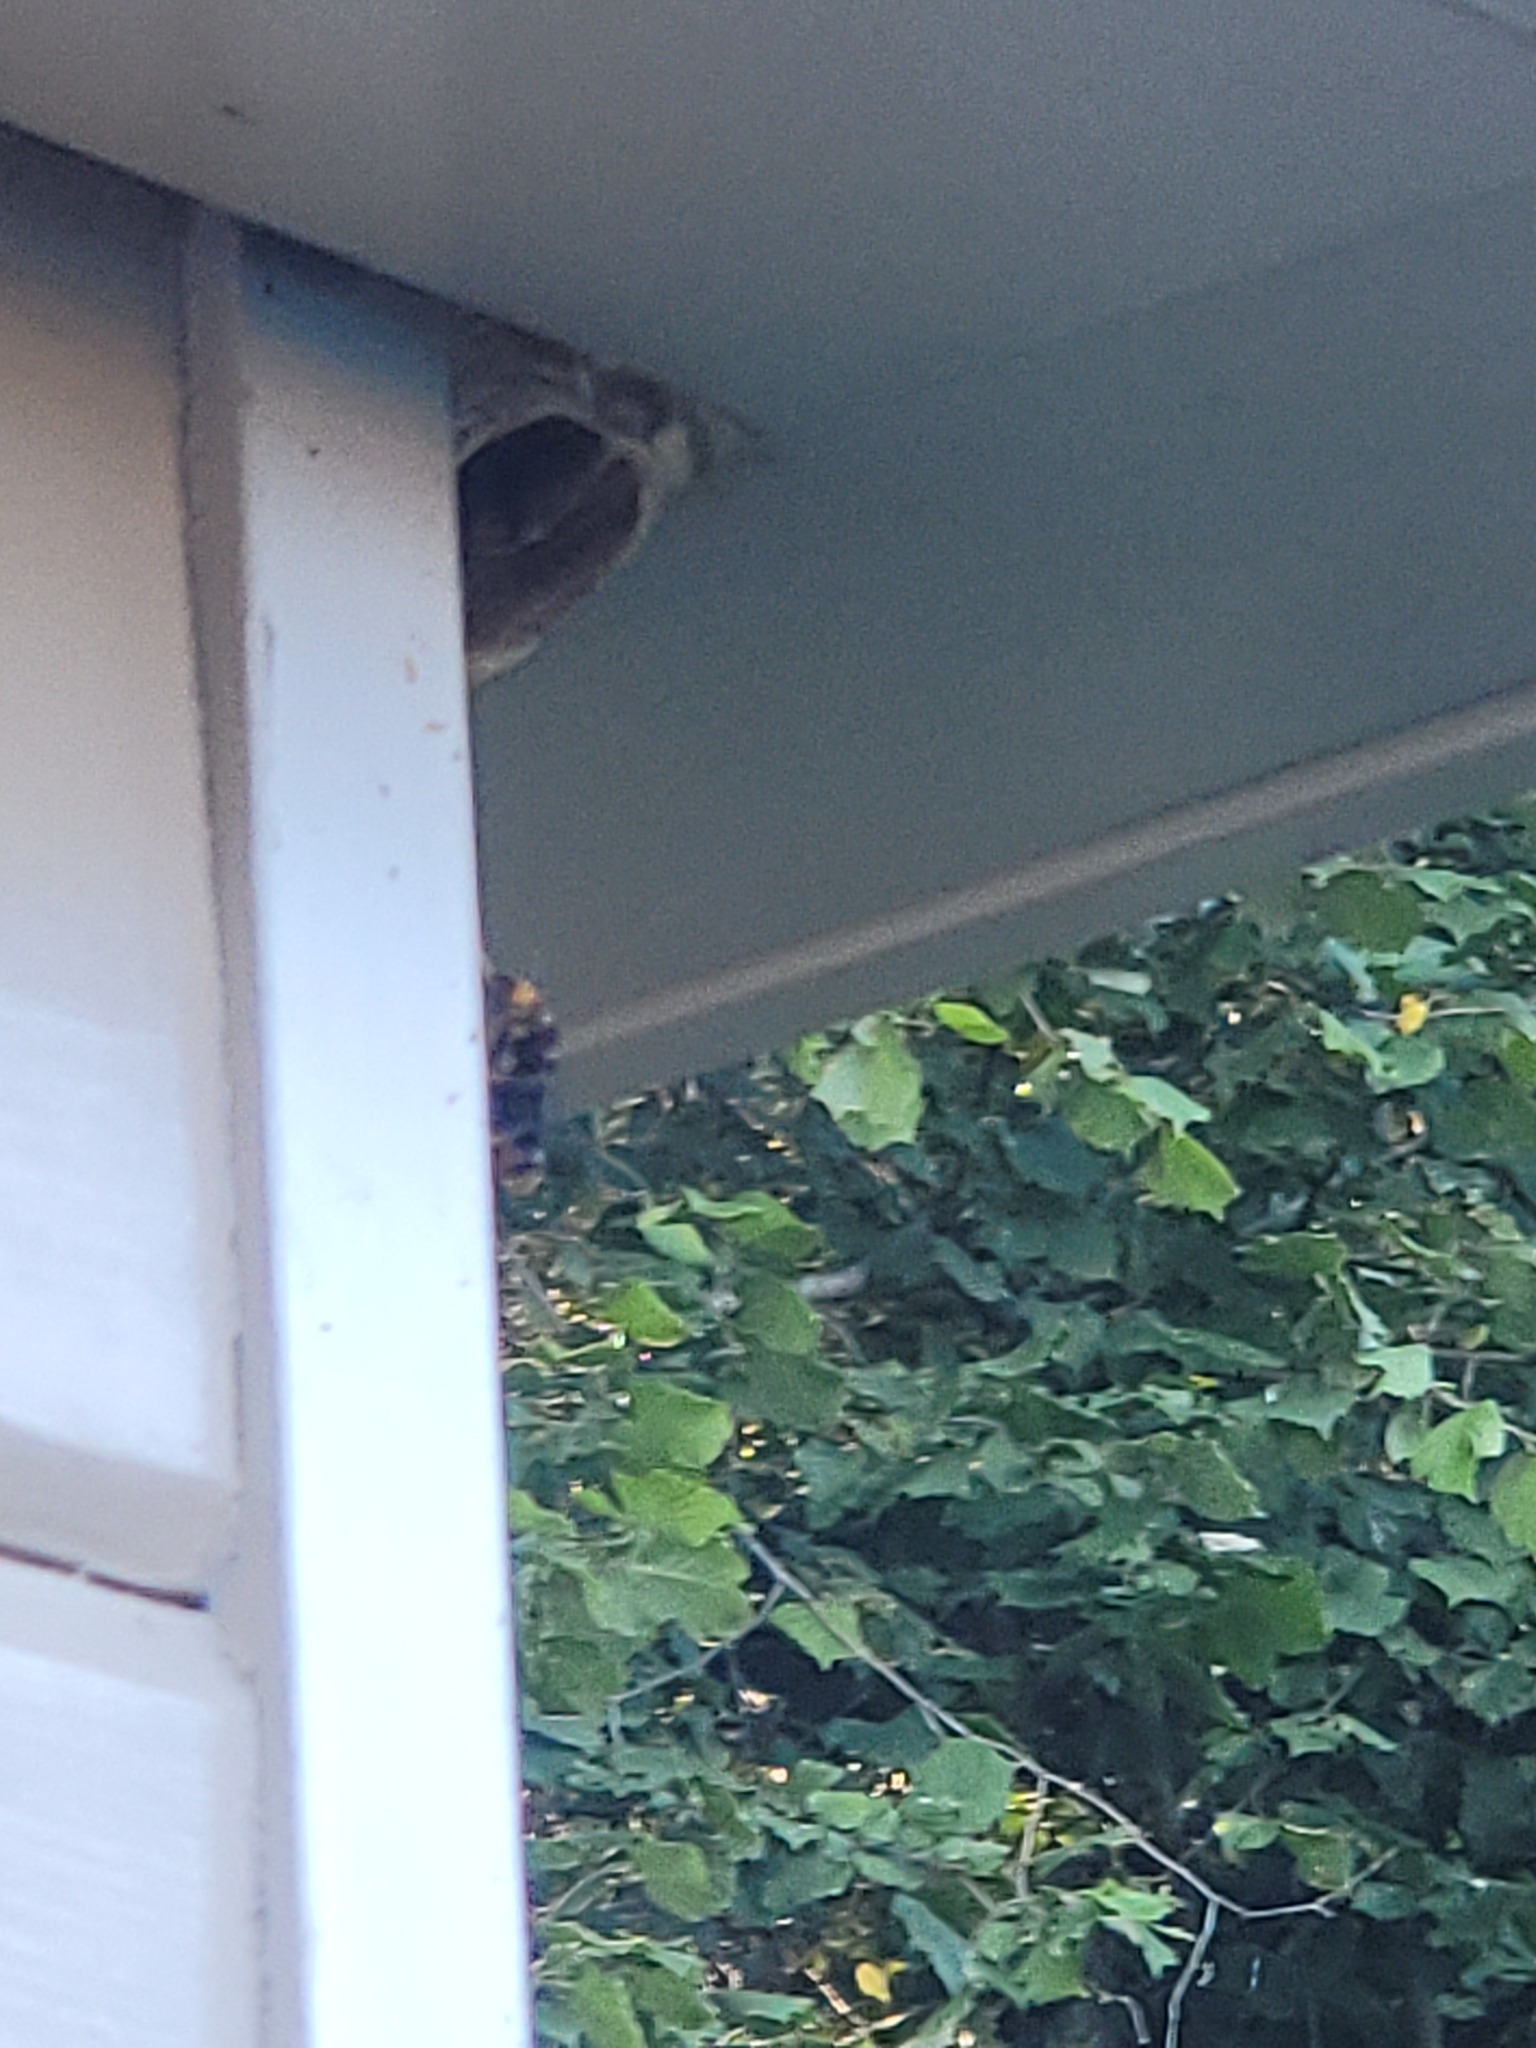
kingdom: Animalia
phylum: Arthropoda
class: Insecta
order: Hymenoptera
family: Vespidae
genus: Vespa
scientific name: Vespa velutina
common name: Asian hornet
